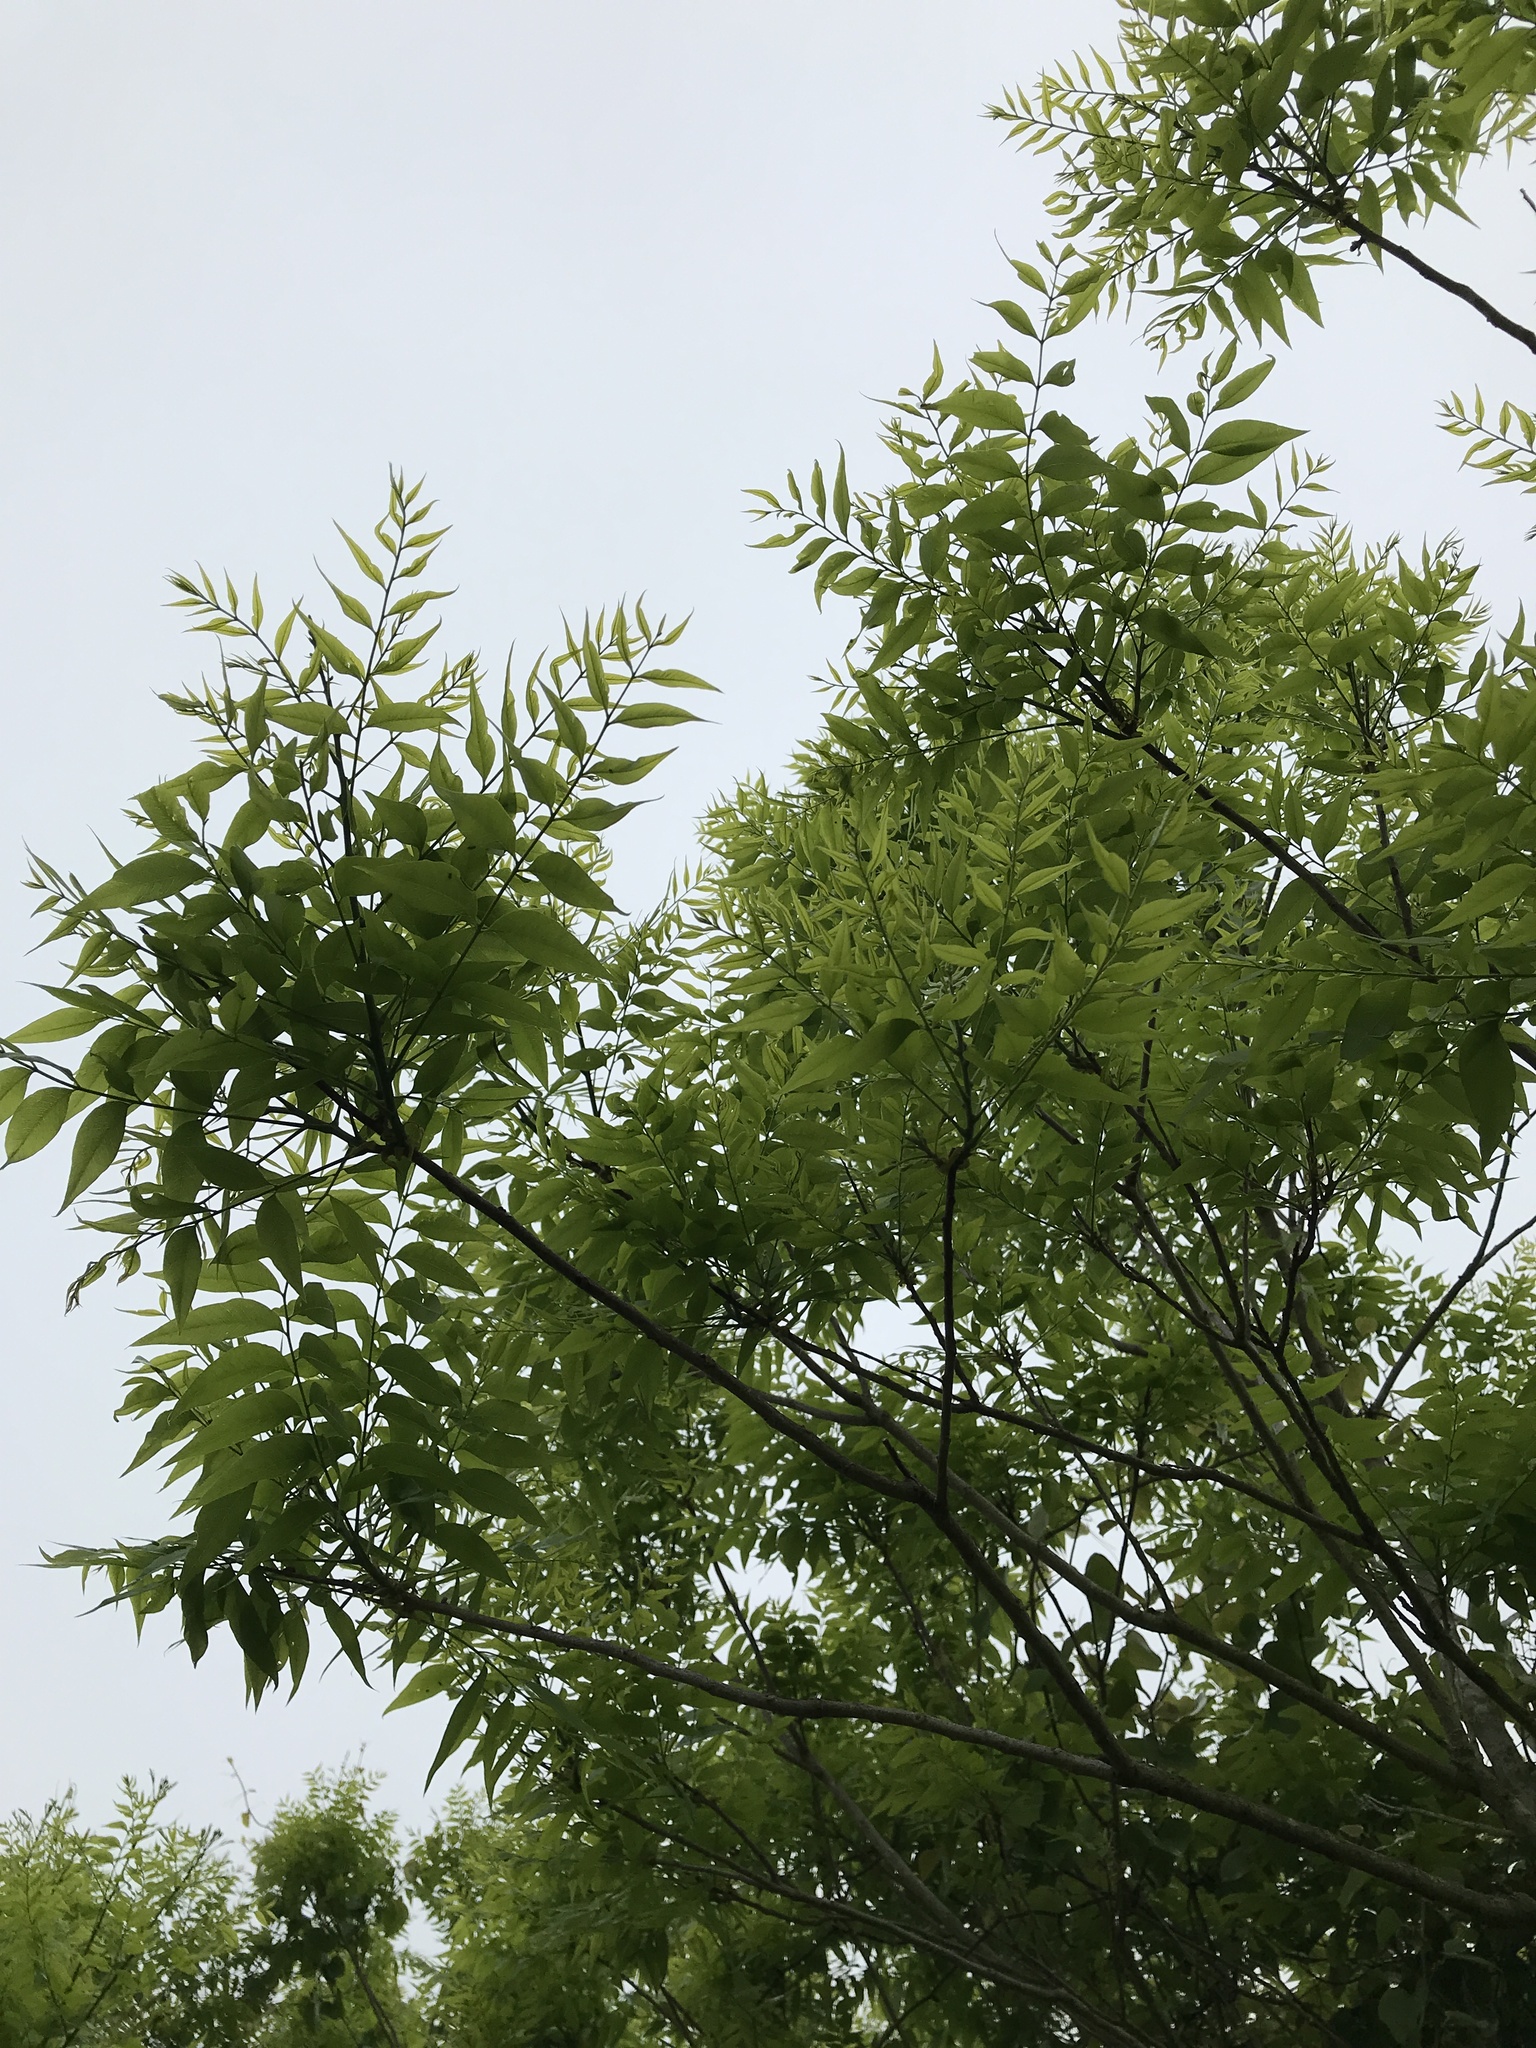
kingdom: Plantae
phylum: Tracheophyta
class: Magnoliopsida
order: Sapindales
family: Sapindaceae
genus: Sapindus
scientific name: Sapindus drummondii
